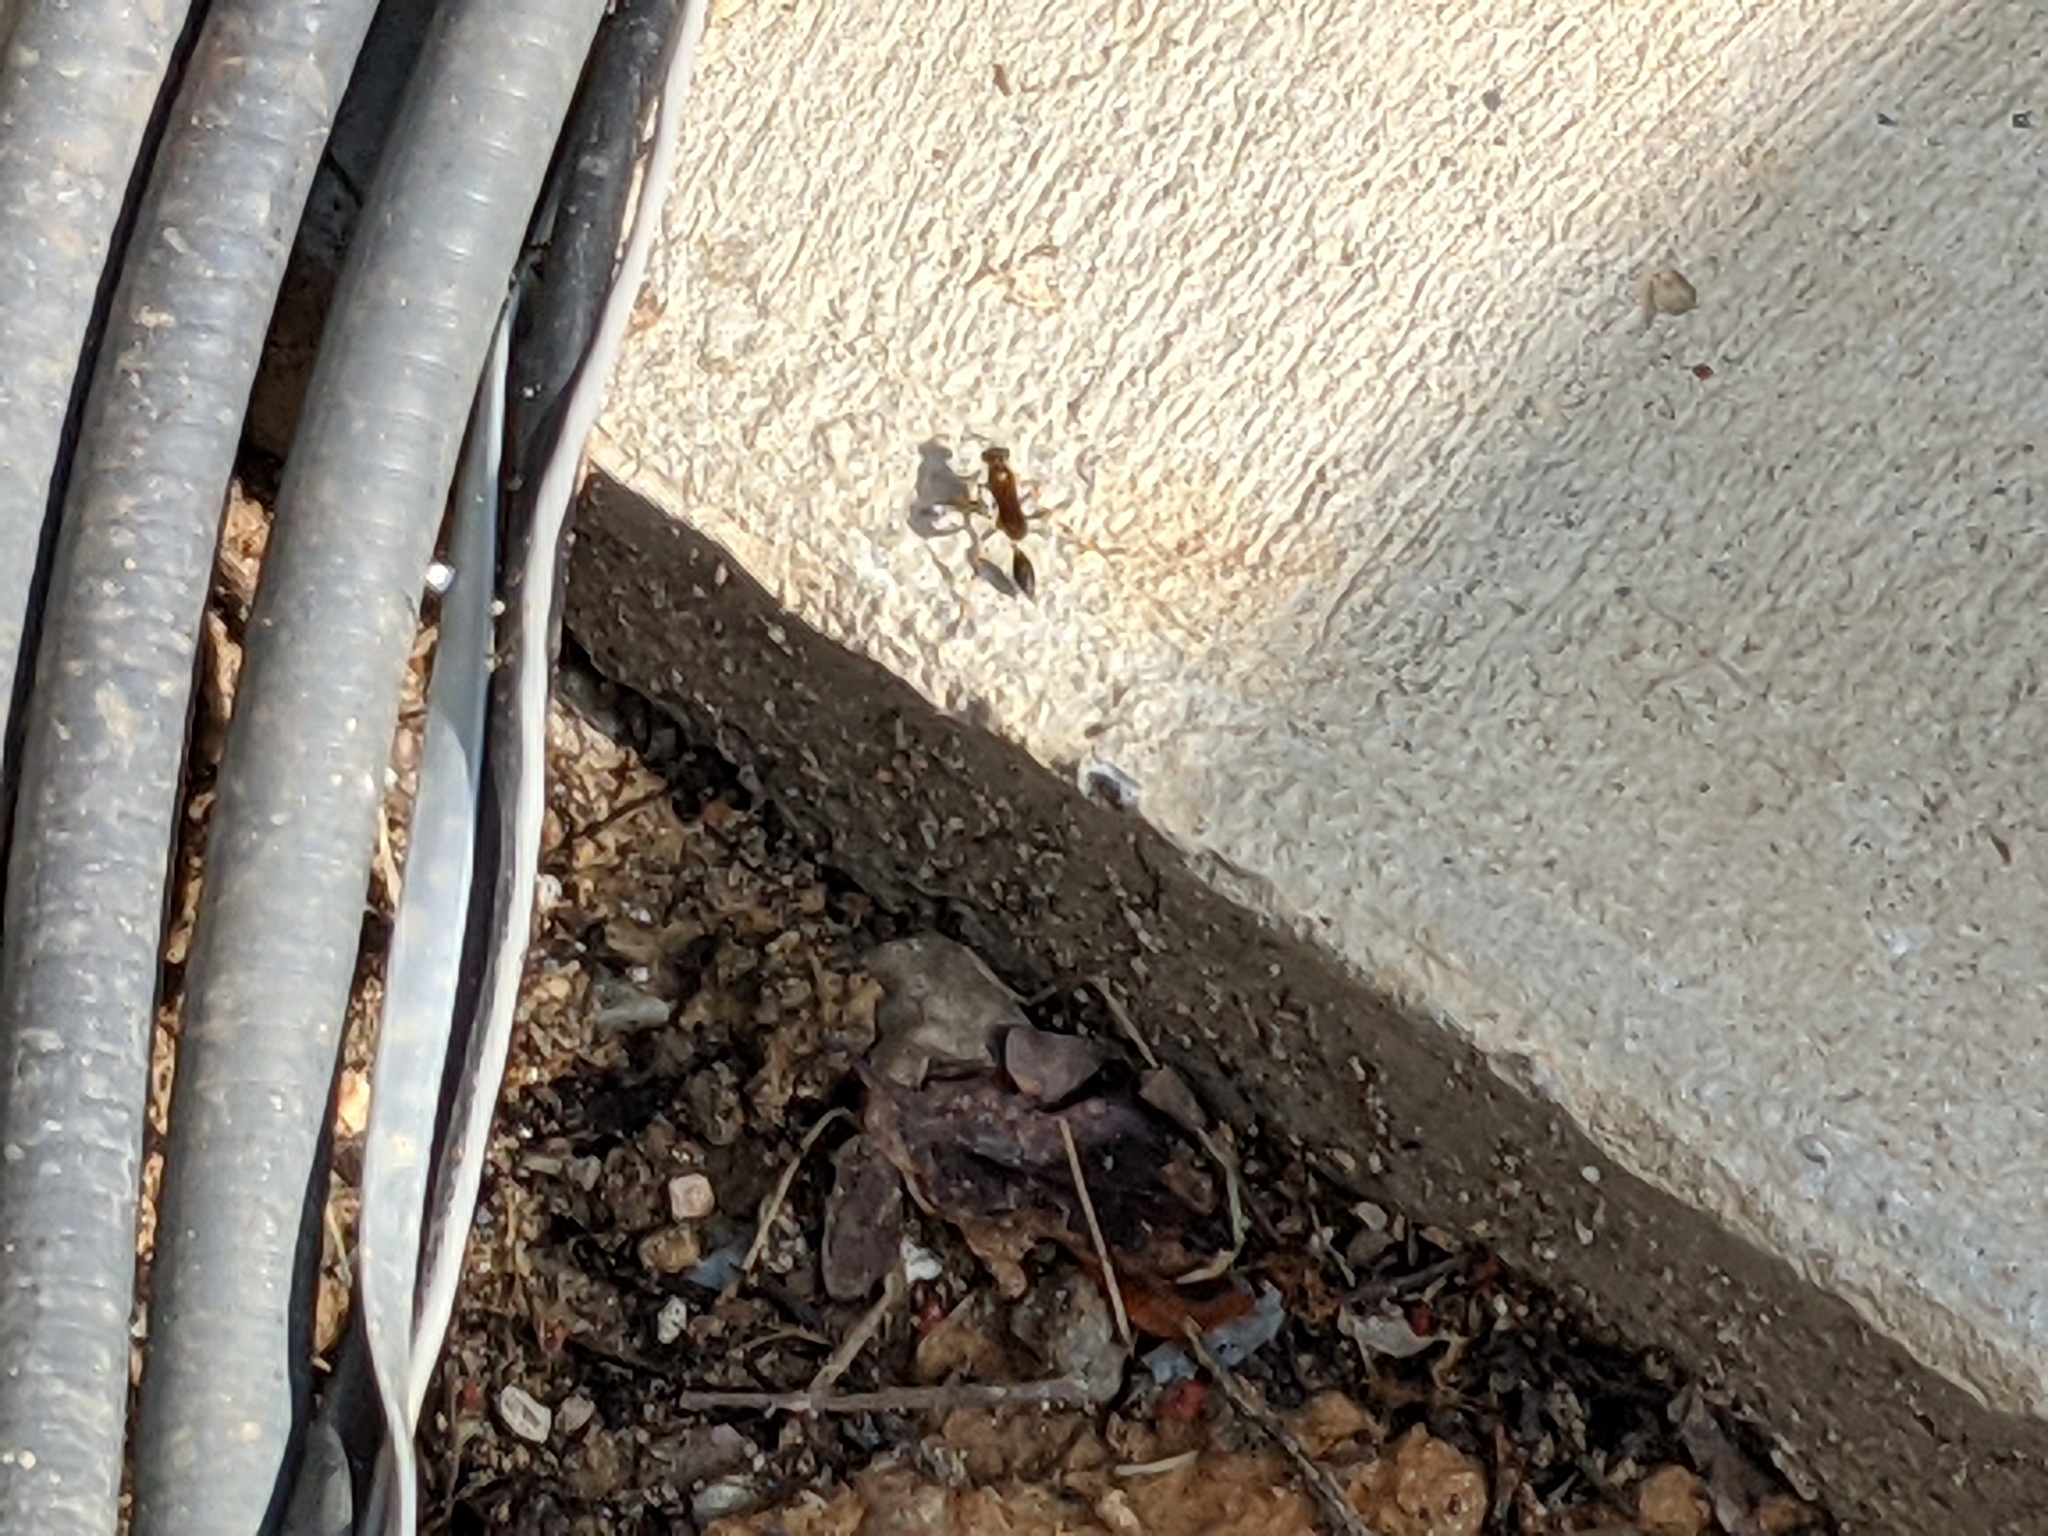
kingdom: Animalia
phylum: Arthropoda
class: Insecta
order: Hymenoptera
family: Sphecidae
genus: Sceliphron
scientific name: Sceliphron caementarium
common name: Mud dauber
